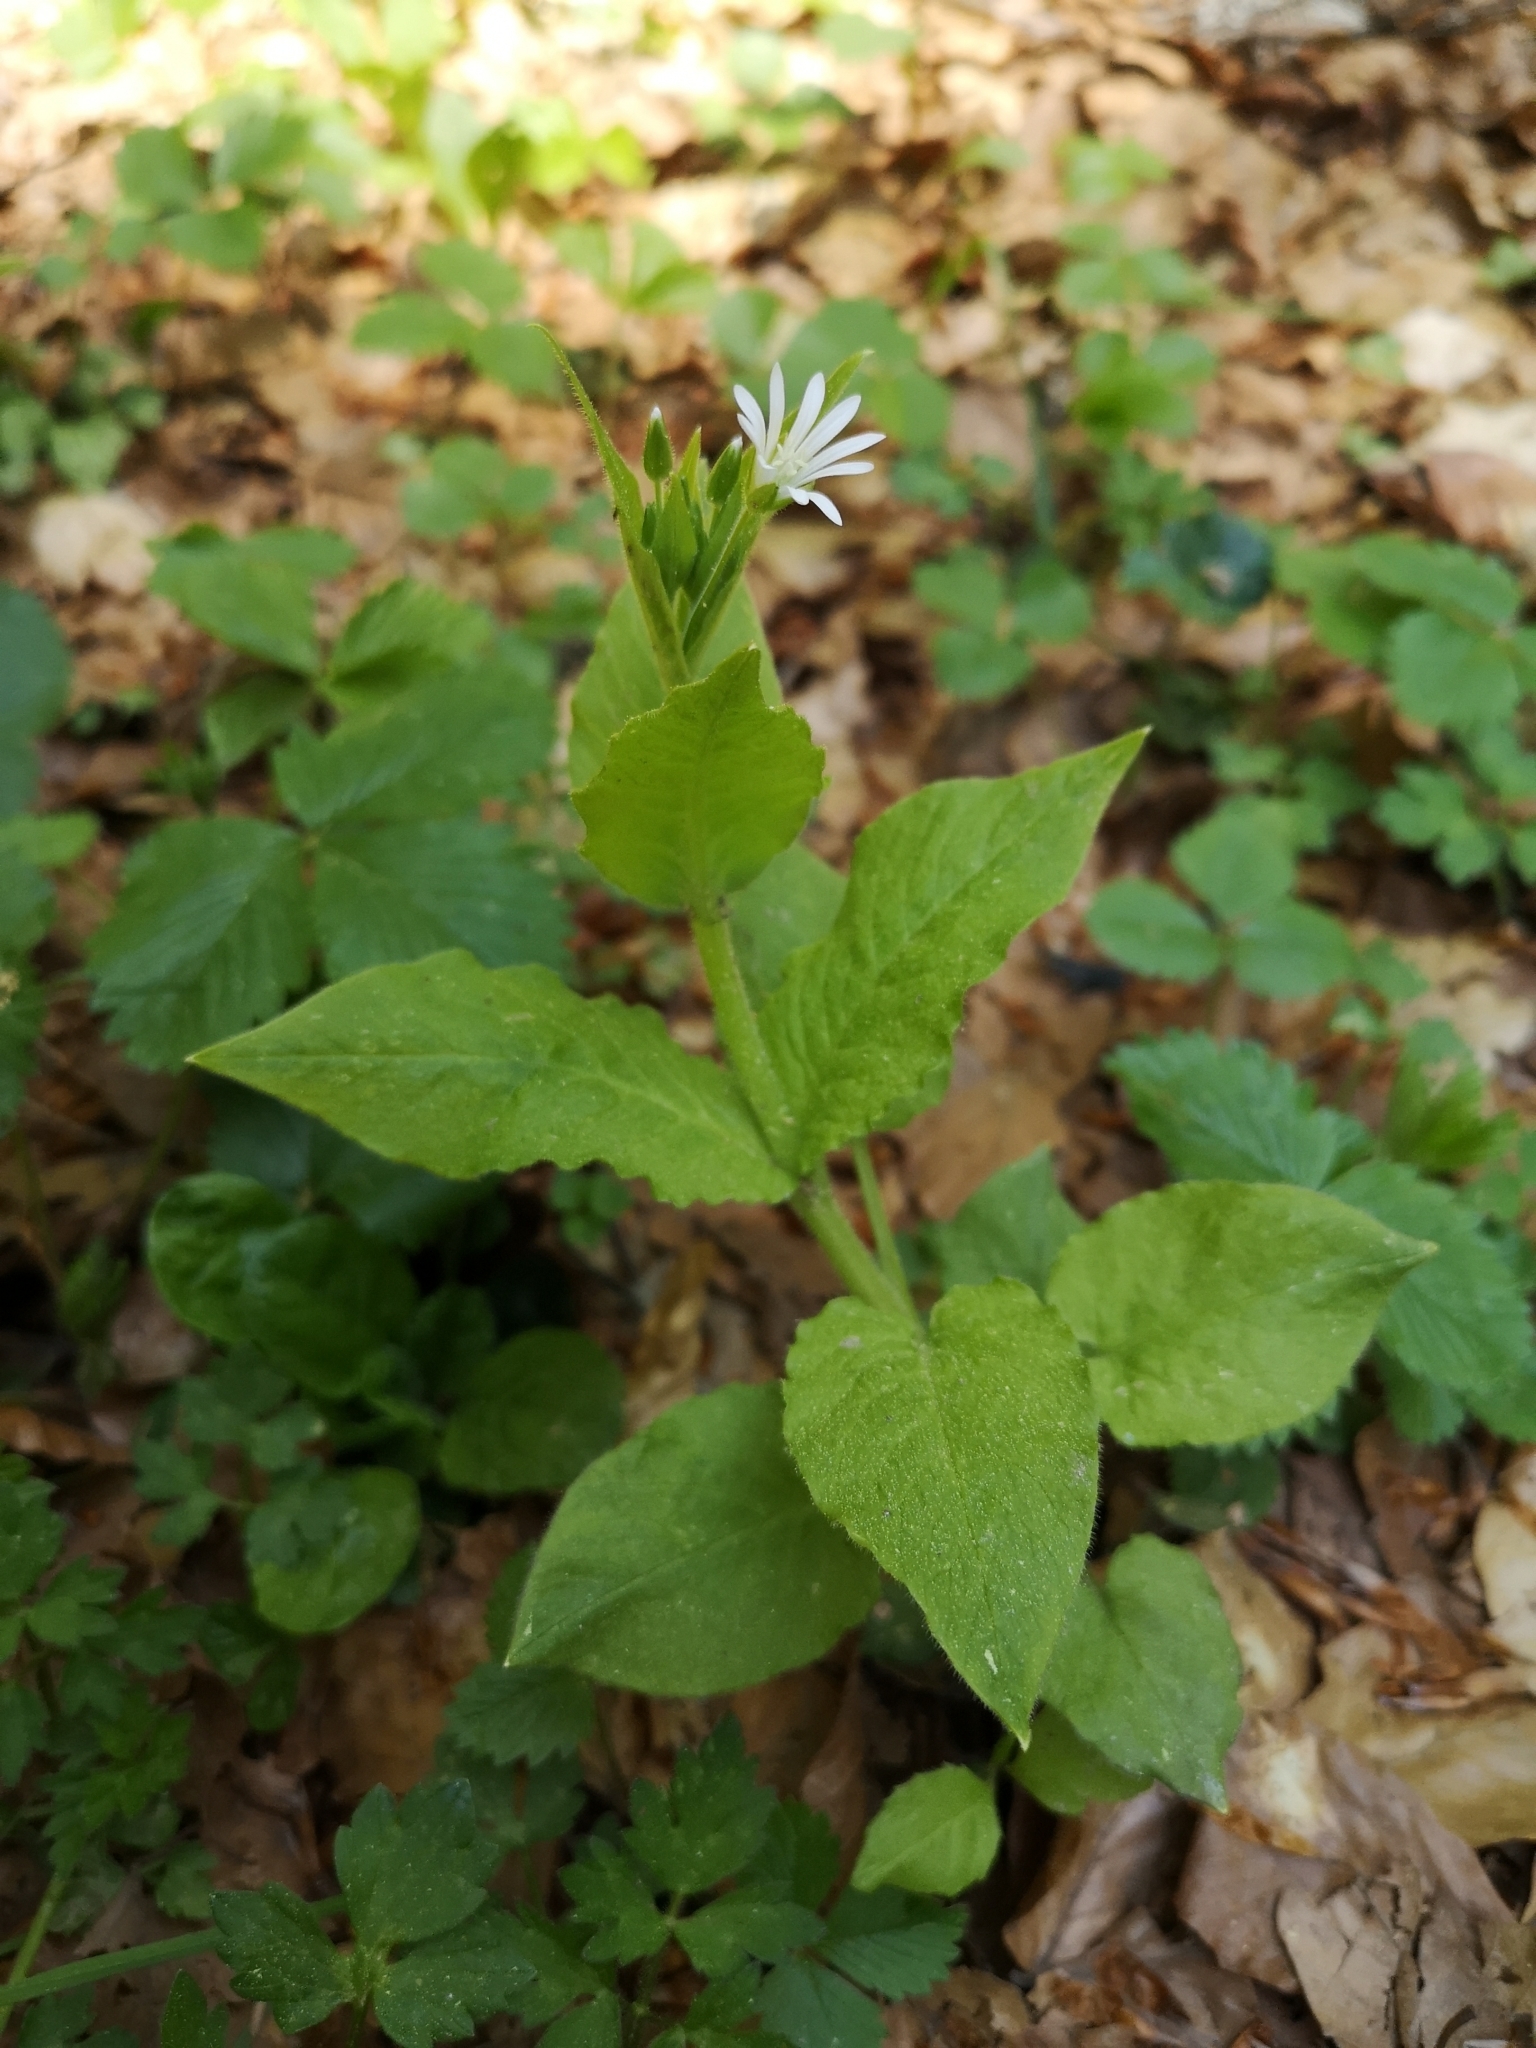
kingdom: Plantae
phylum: Tracheophyta
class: Magnoliopsida
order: Caryophyllales
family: Caryophyllaceae
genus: Stellaria
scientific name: Stellaria nemorum
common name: Wood stitchwort
